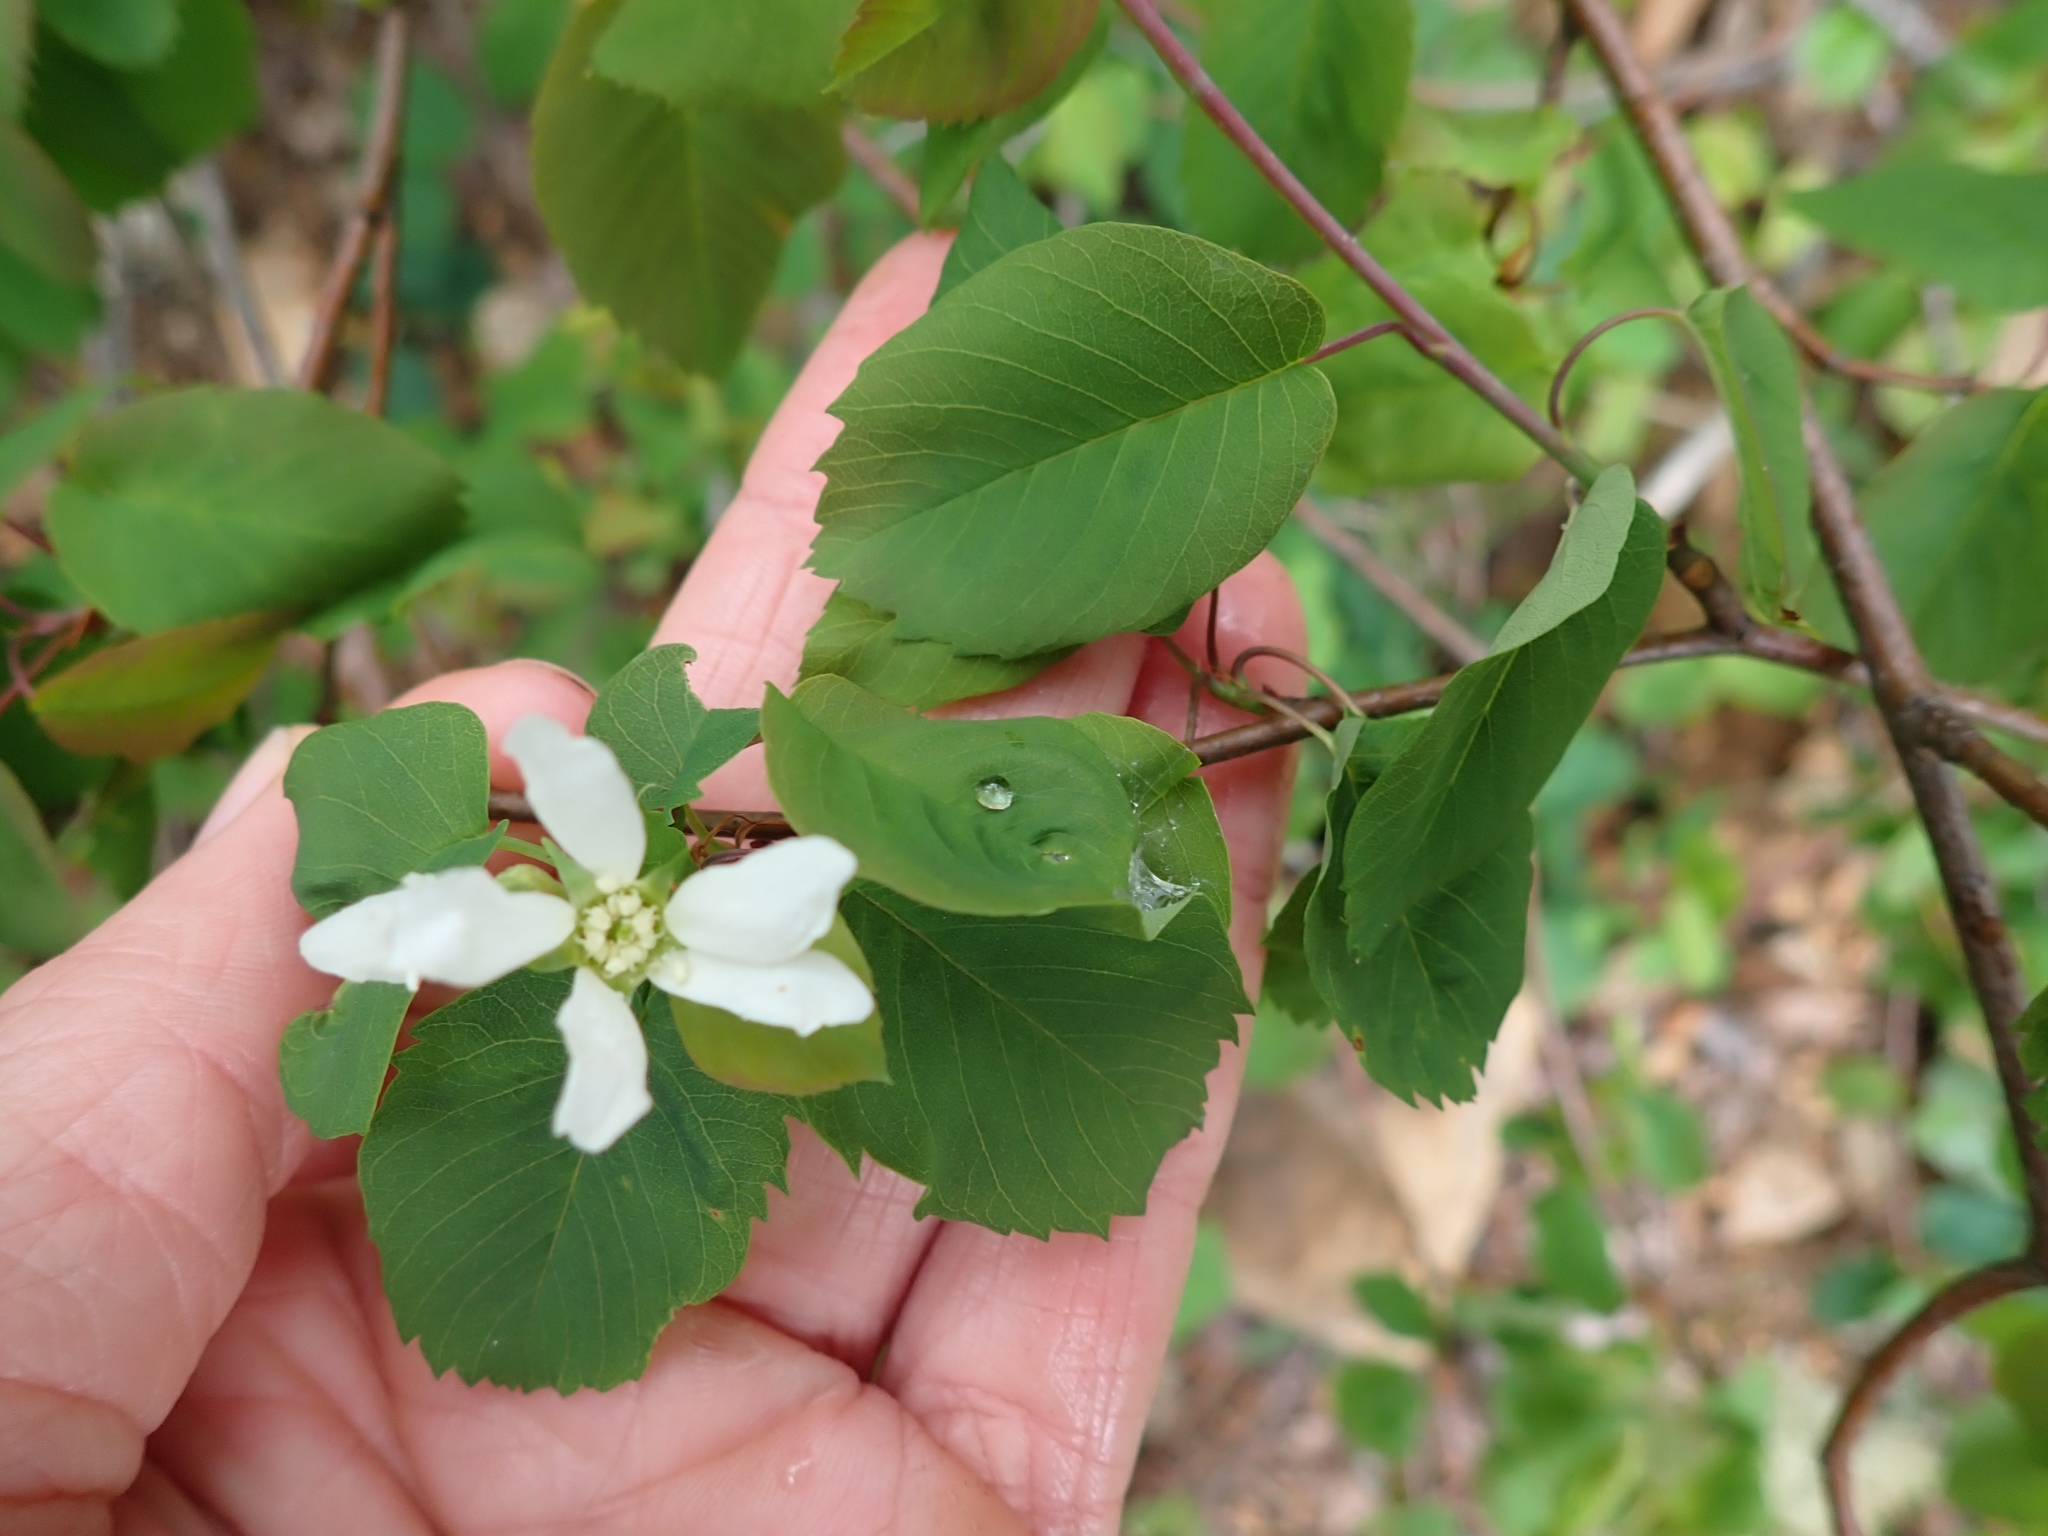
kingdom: Plantae
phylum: Tracheophyta
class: Magnoliopsida
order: Rosales
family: Rosaceae
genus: Amelanchier
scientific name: Amelanchier alnifolia
